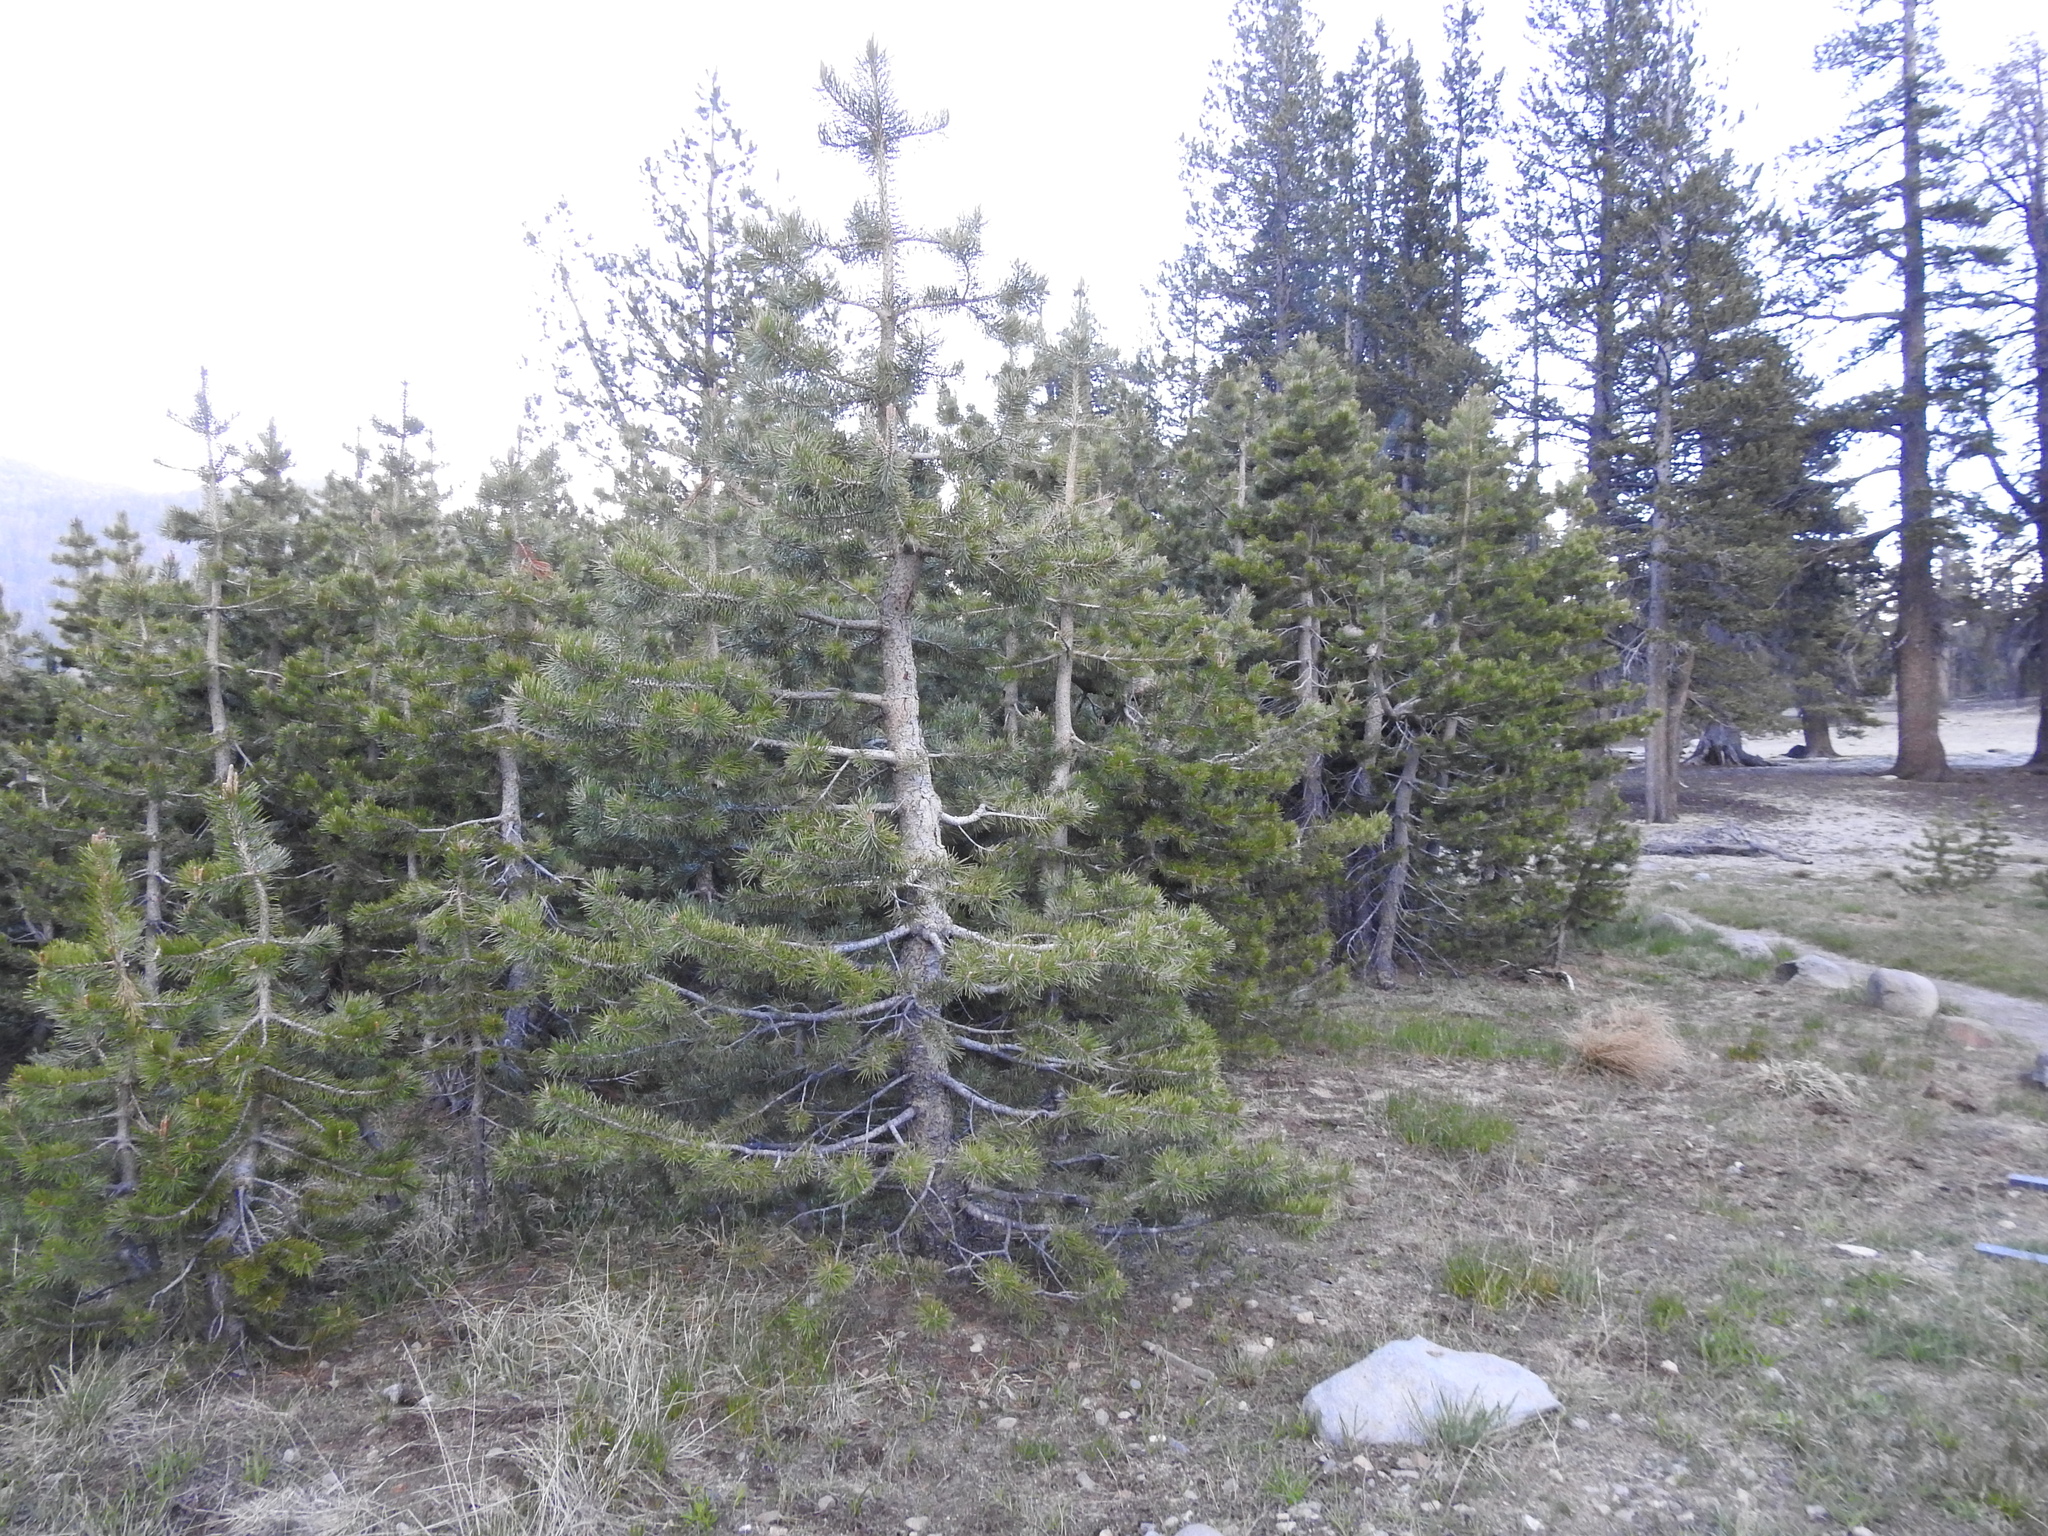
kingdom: Plantae
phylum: Tracheophyta
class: Pinopsida
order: Pinales
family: Pinaceae
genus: Pinus
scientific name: Pinus contorta
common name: Lodgepole pine
